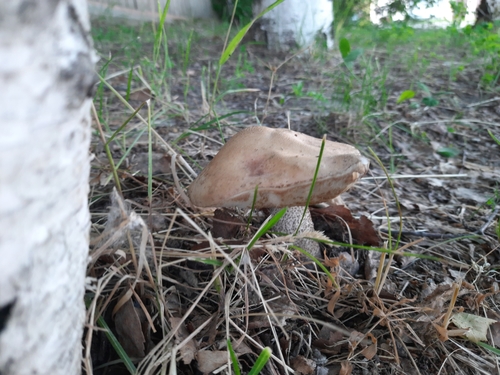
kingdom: Fungi
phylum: Basidiomycota
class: Agaricomycetes
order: Boletales
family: Boletaceae
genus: Leccinum
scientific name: Leccinum scabrum
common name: Blushing bolete
